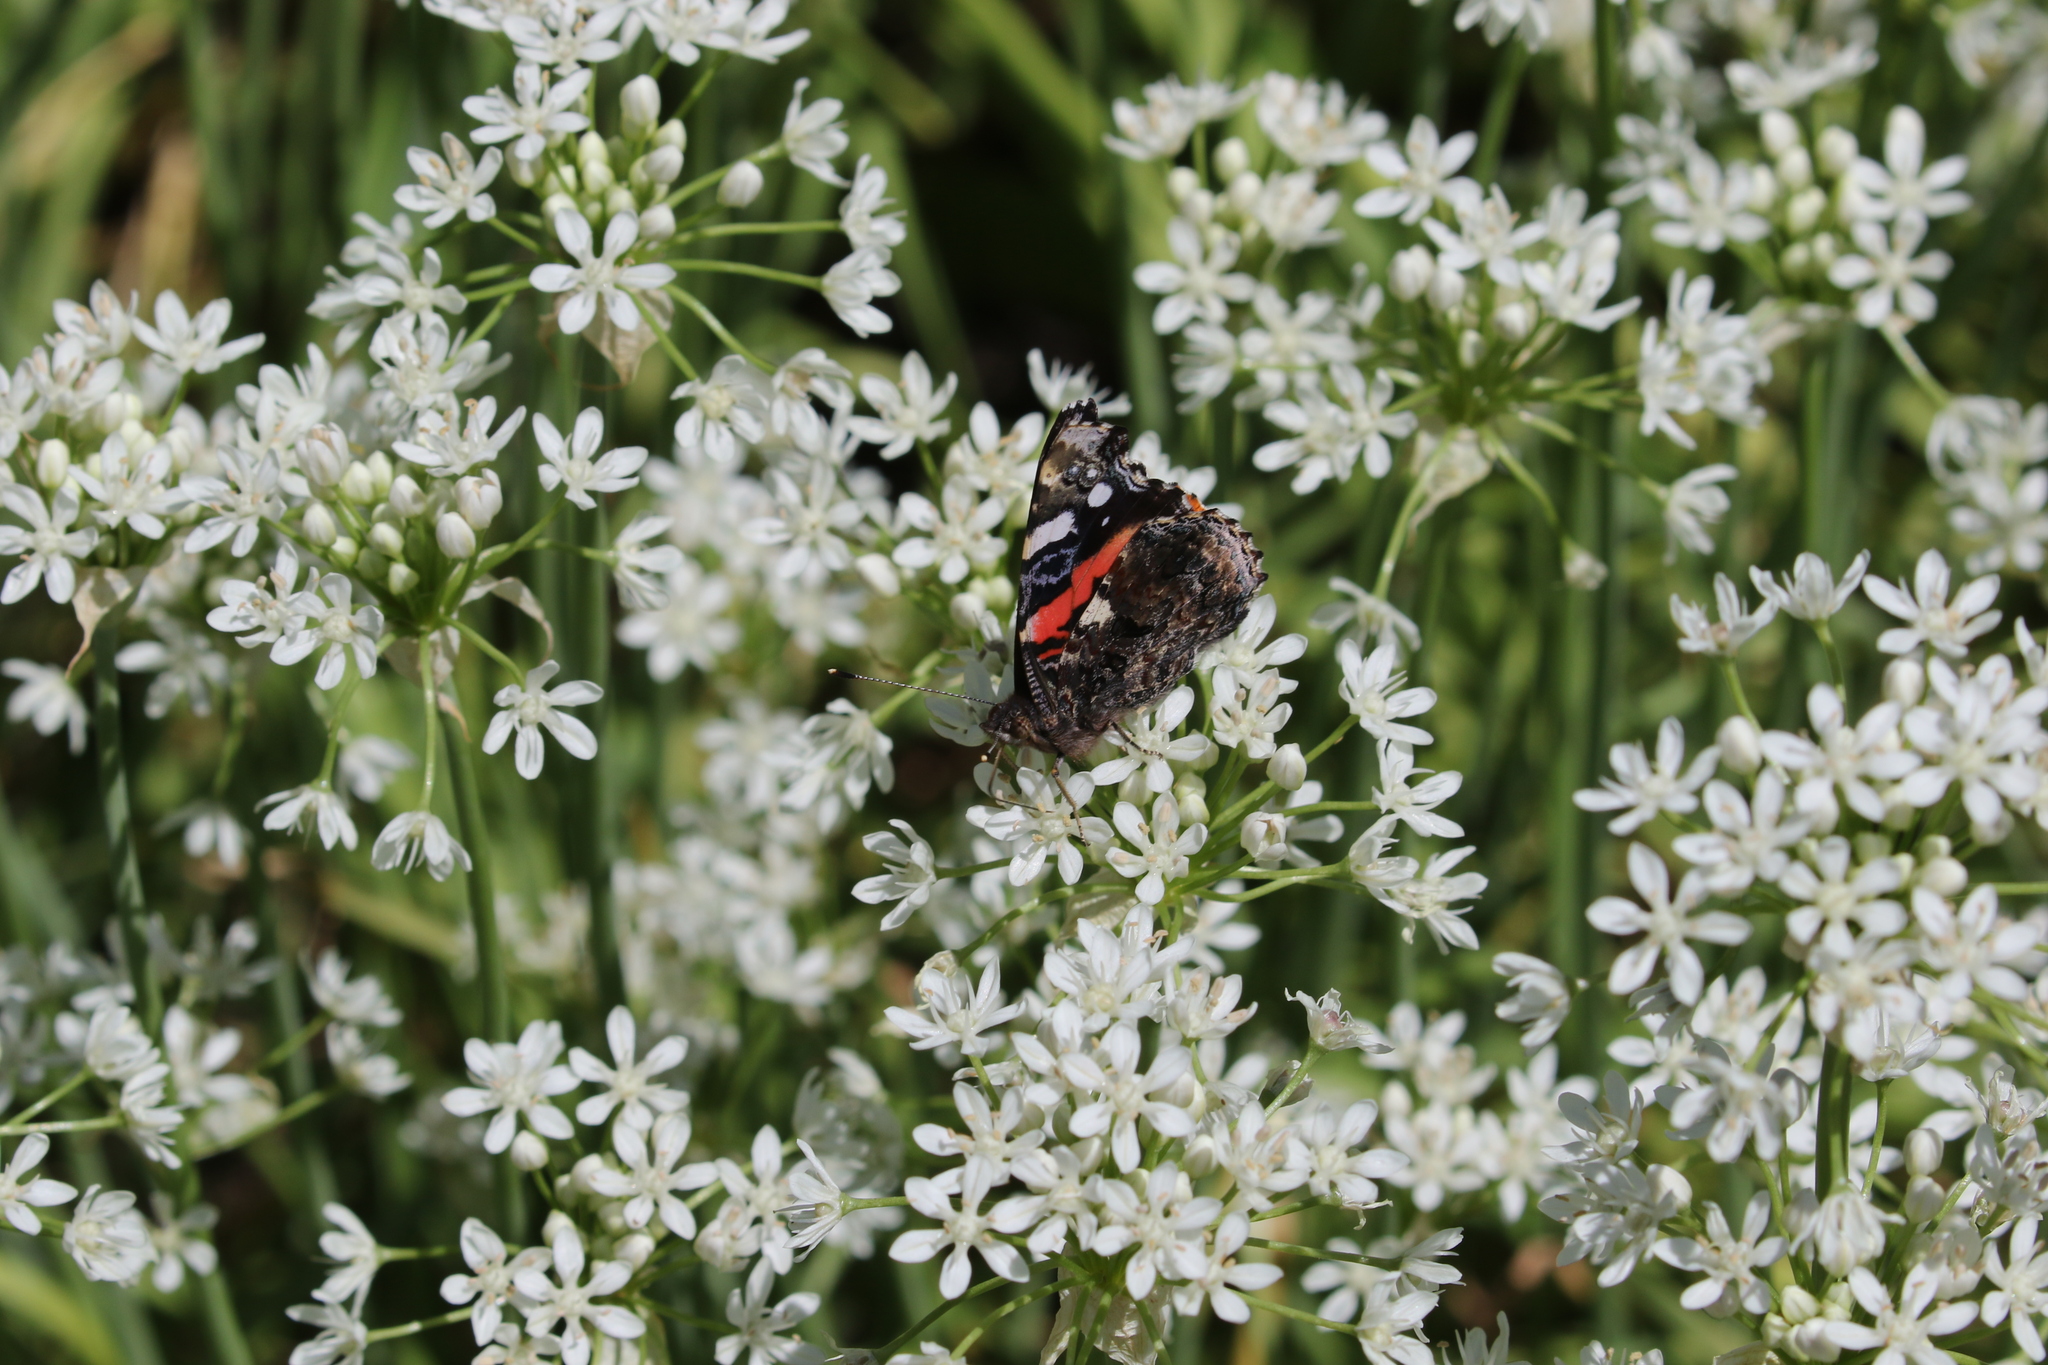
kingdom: Animalia
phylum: Arthropoda
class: Insecta
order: Lepidoptera
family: Nymphalidae
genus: Vanessa
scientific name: Vanessa atalanta
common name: Red admiral
